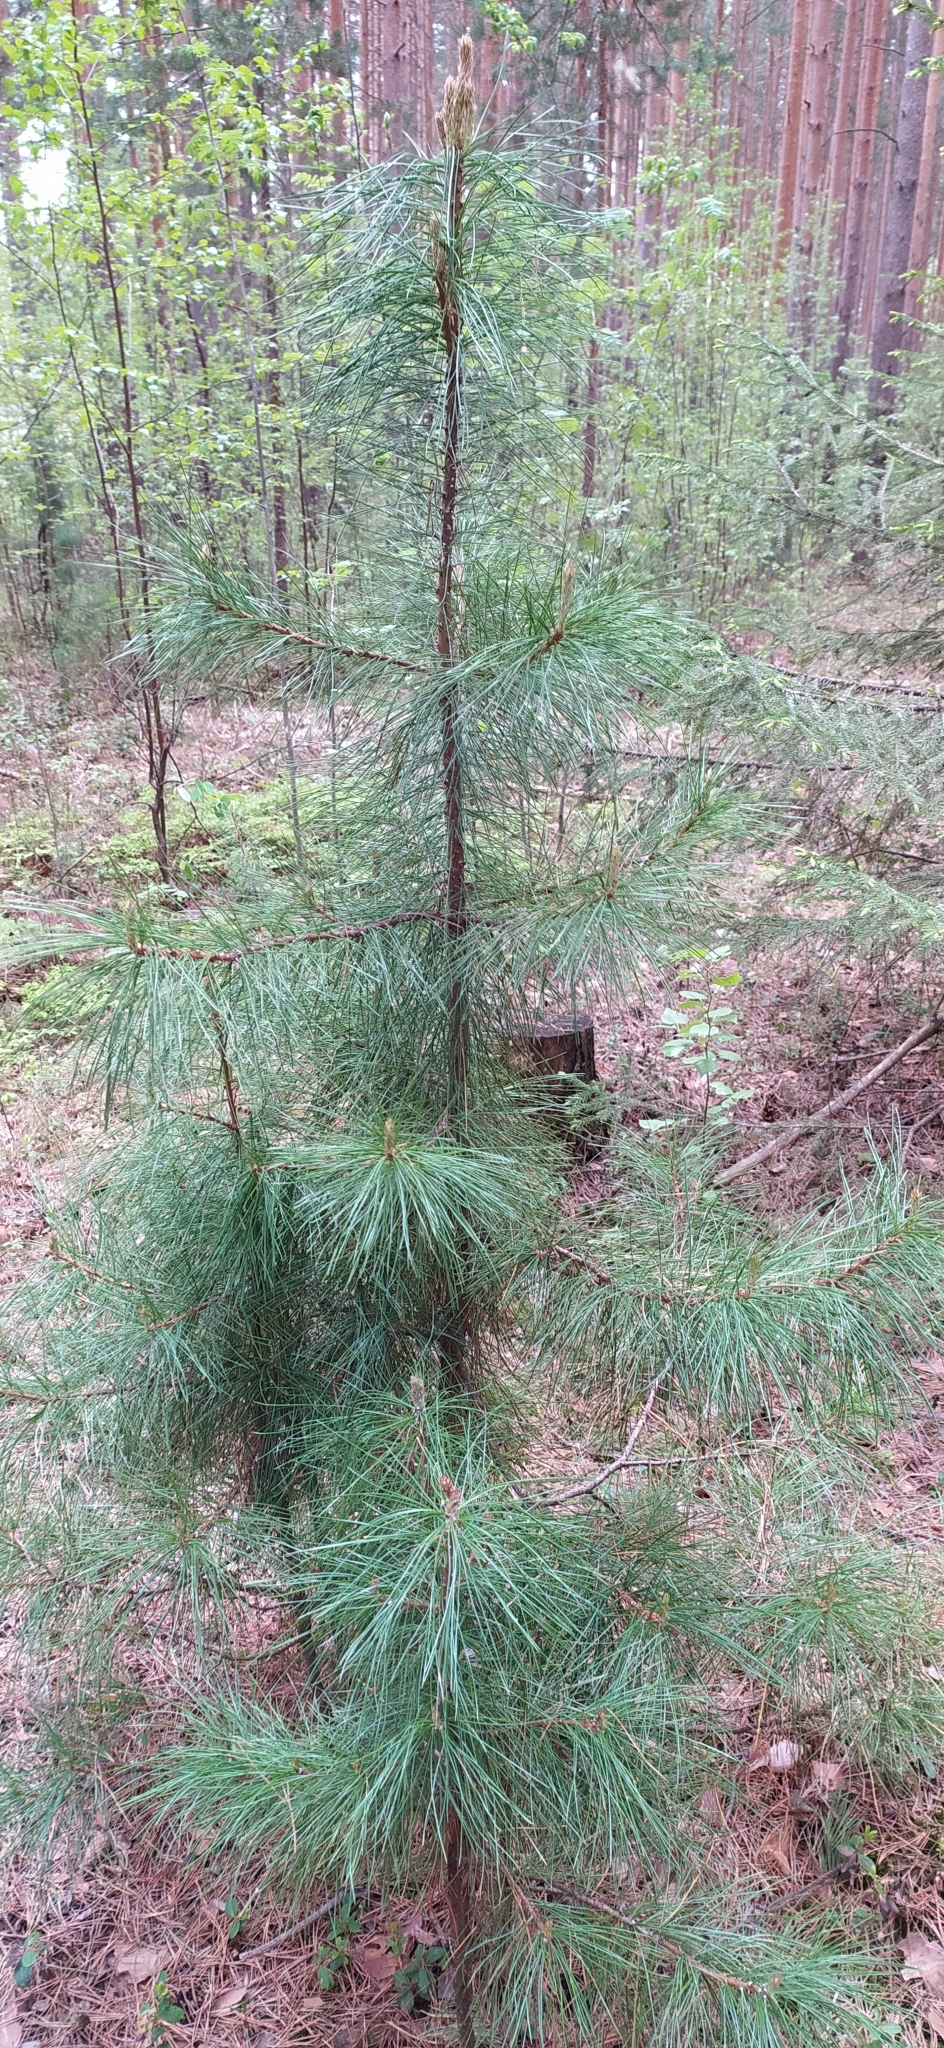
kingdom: Plantae
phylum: Tracheophyta
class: Pinopsida
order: Pinales
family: Pinaceae
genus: Pinus
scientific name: Pinus sibirica
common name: Siberian pine
